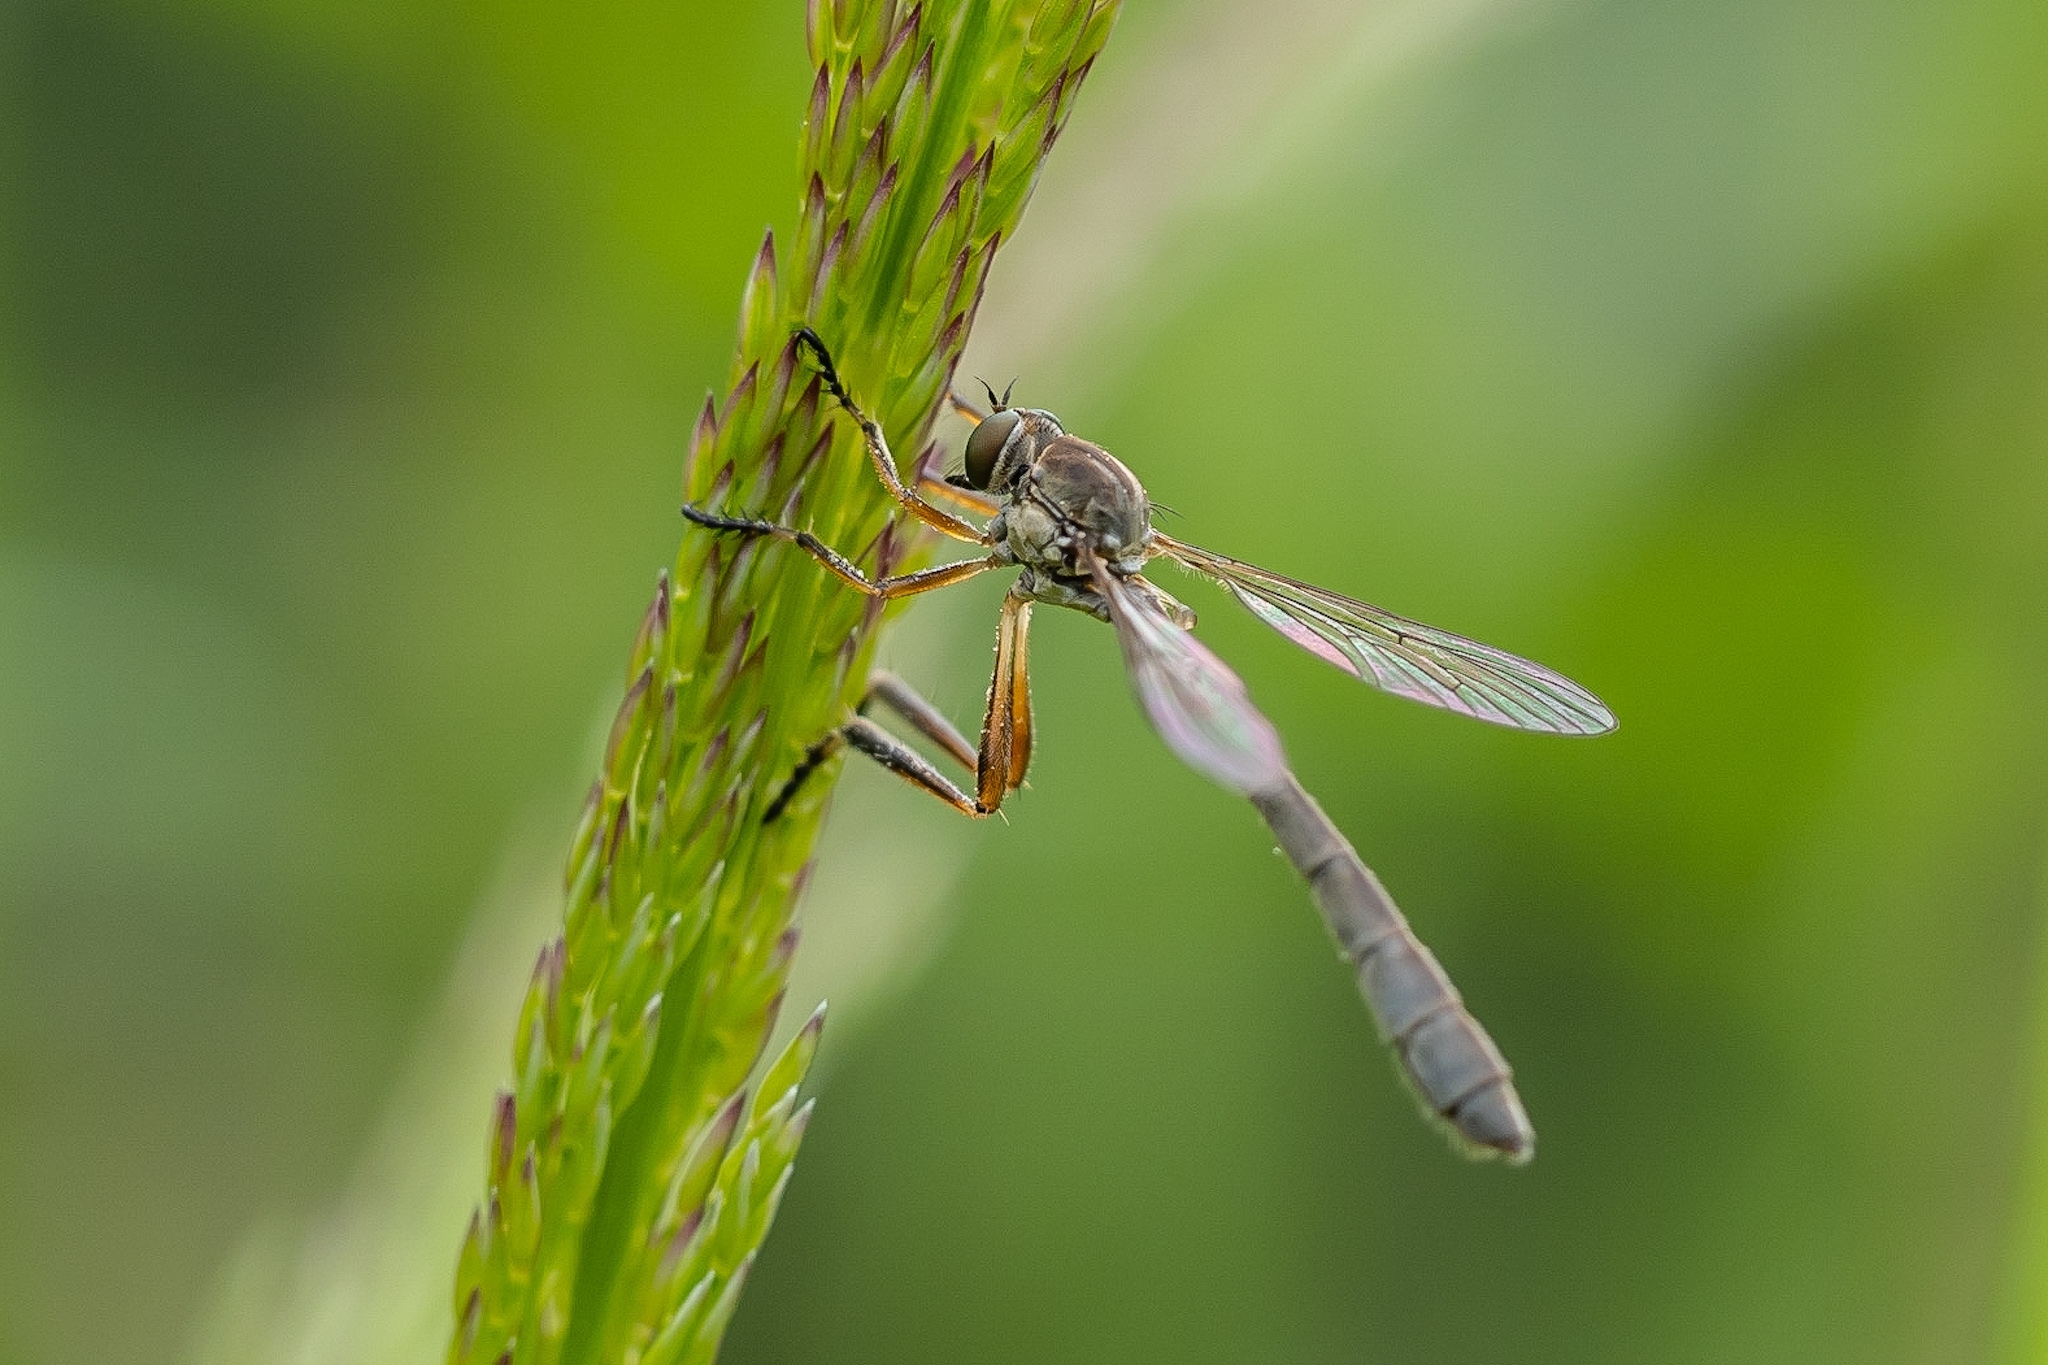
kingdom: Animalia
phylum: Arthropoda
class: Insecta
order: Diptera
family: Asilidae
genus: Leptogaster
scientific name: Leptogaster cylindrica
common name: Striped slender robberfly
